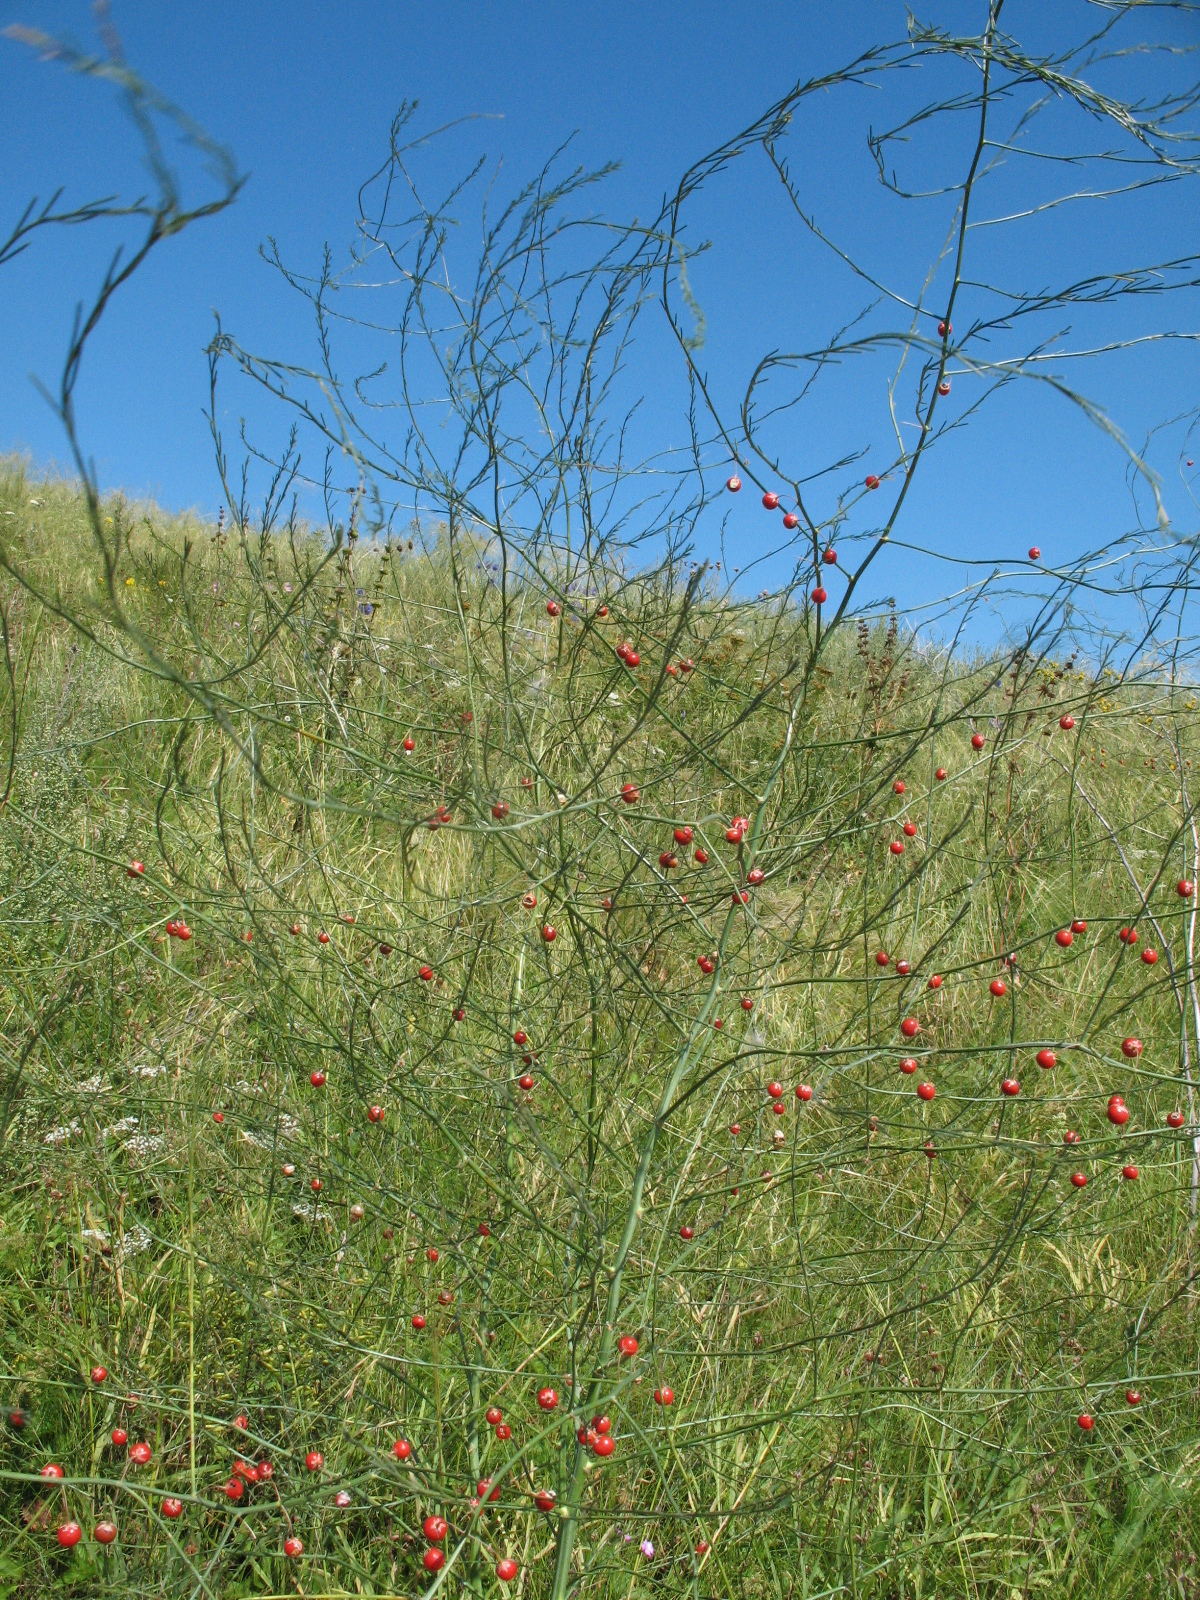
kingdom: Plantae
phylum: Tracheophyta
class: Liliopsida
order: Asparagales
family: Asparagaceae
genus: Asparagus
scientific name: Asparagus officinalis
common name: Garden asparagus
